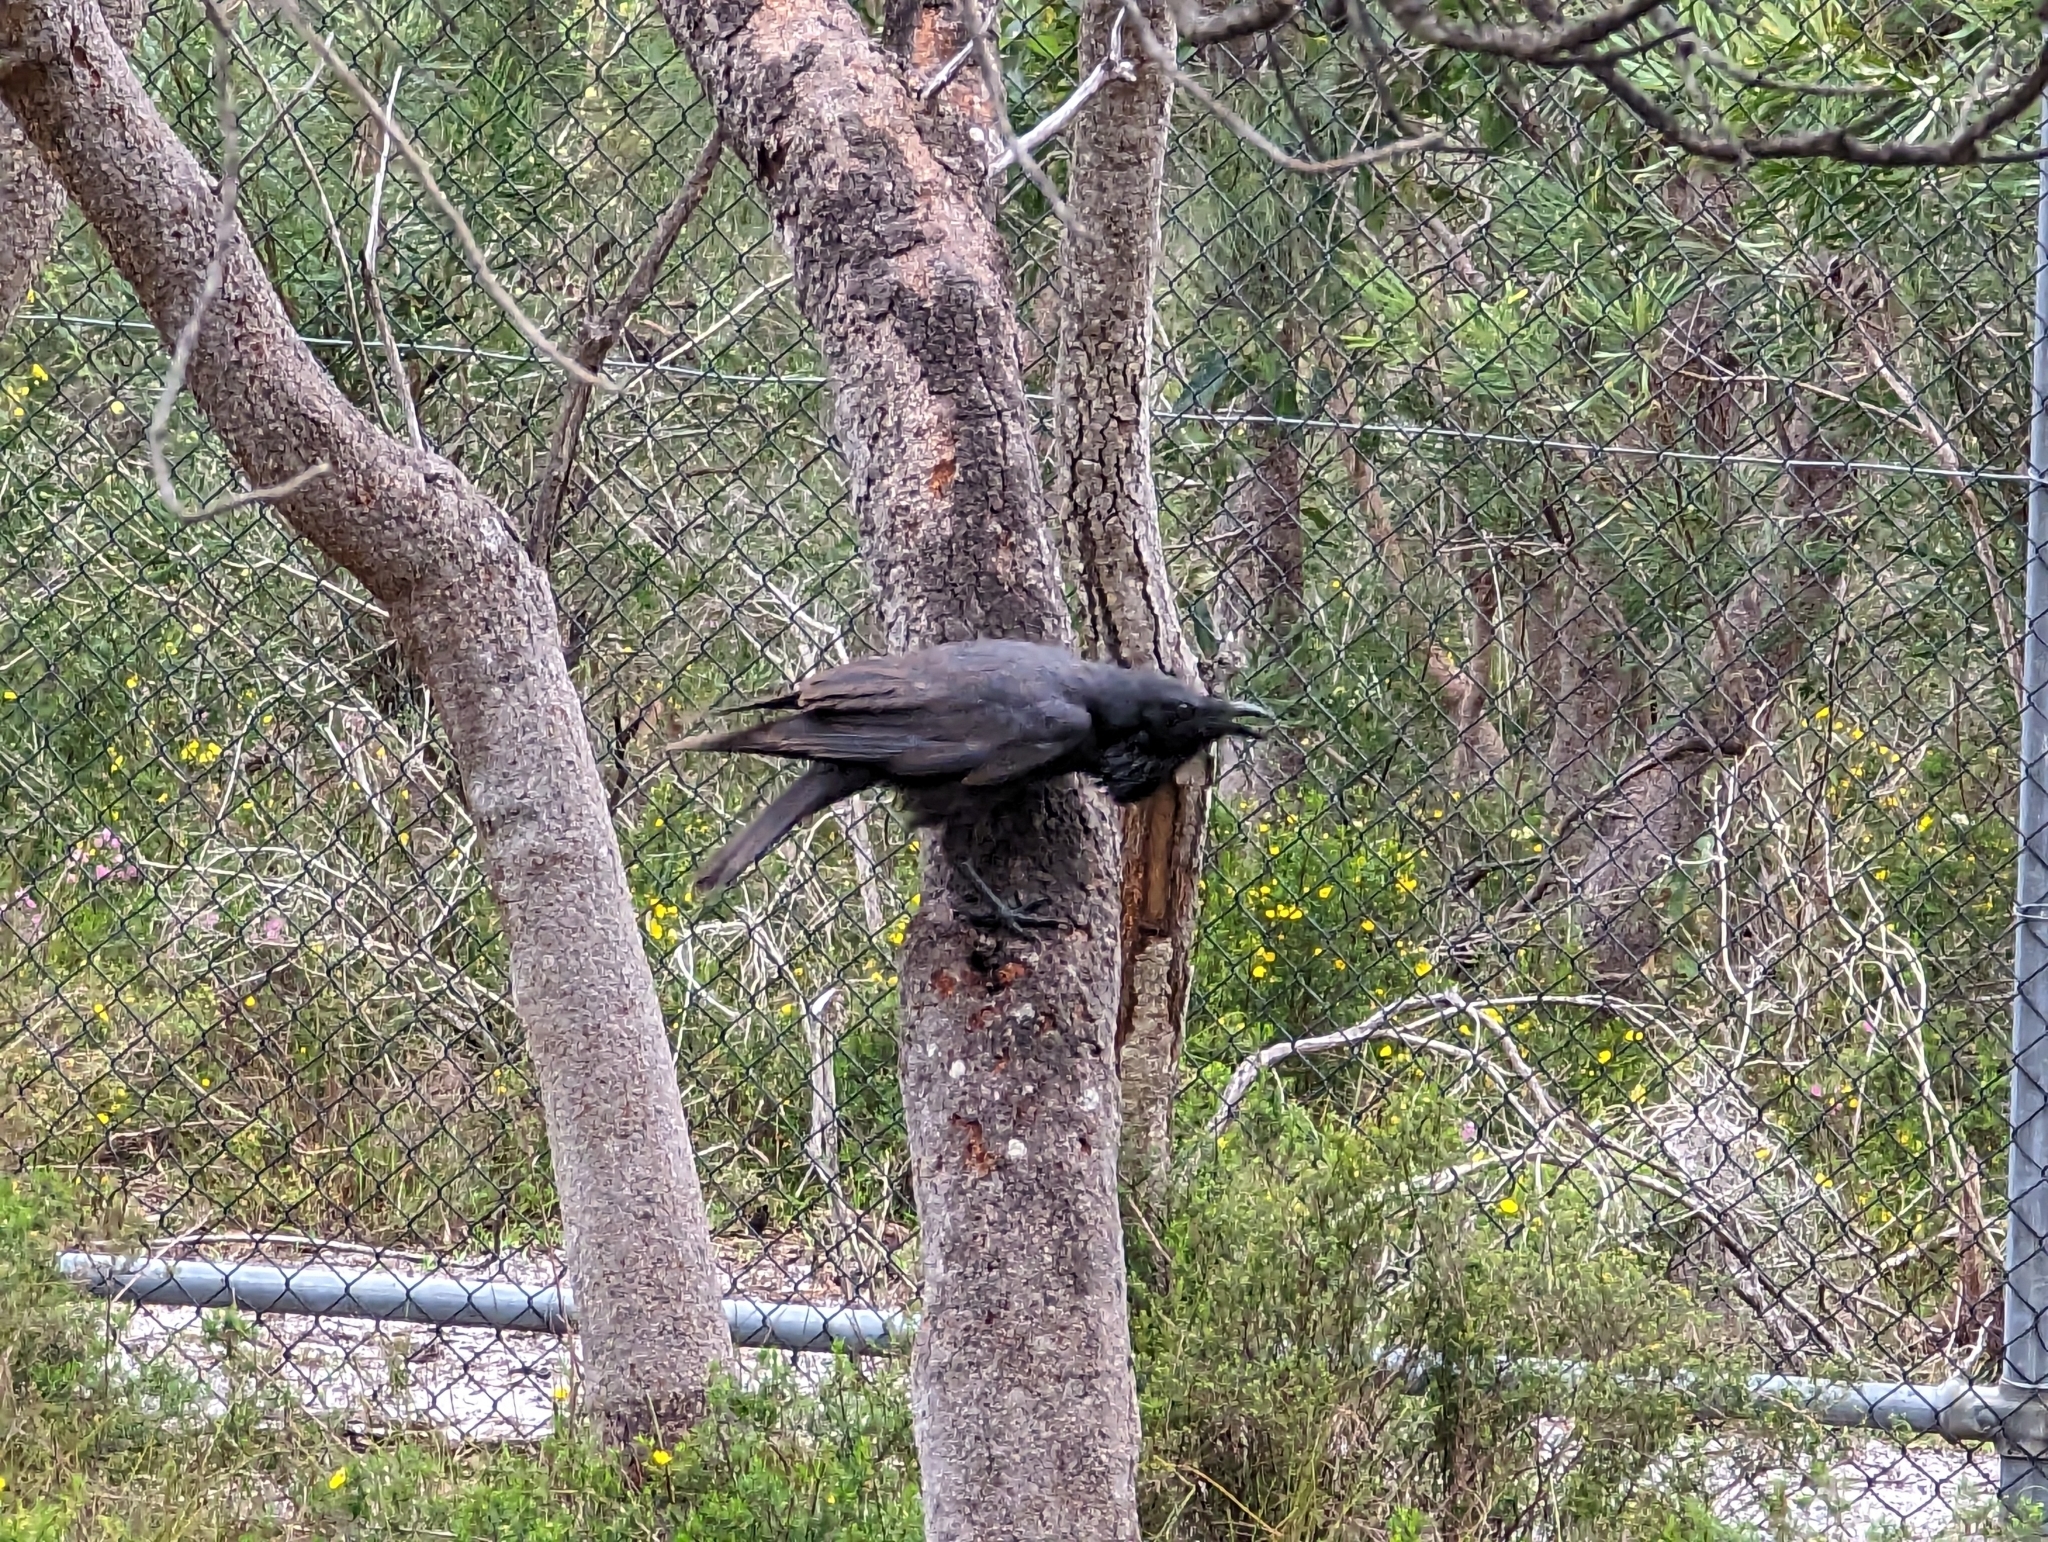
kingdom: Animalia
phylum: Chordata
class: Aves
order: Passeriformes
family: Corvidae
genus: Corvus
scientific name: Corvus coronoides
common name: Australian raven
